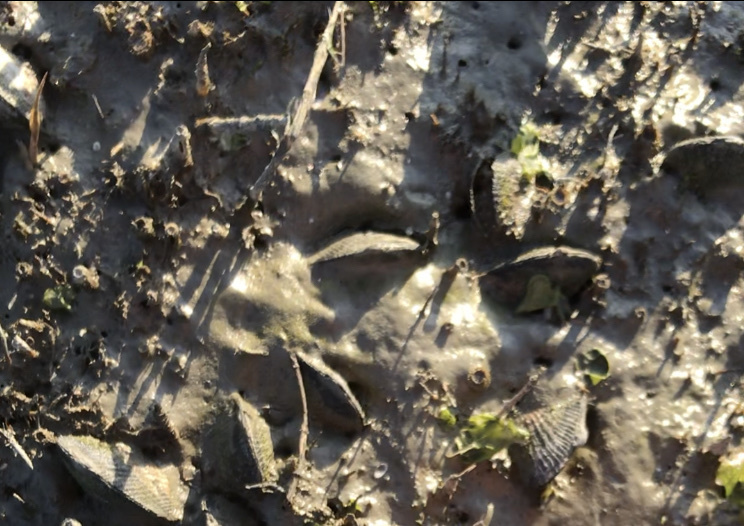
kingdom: Animalia
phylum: Mollusca
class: Bivalvia
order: Mytilida
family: Mytilidae
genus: Geukensia
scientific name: Geukensia demissa
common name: Ribbed mussel
